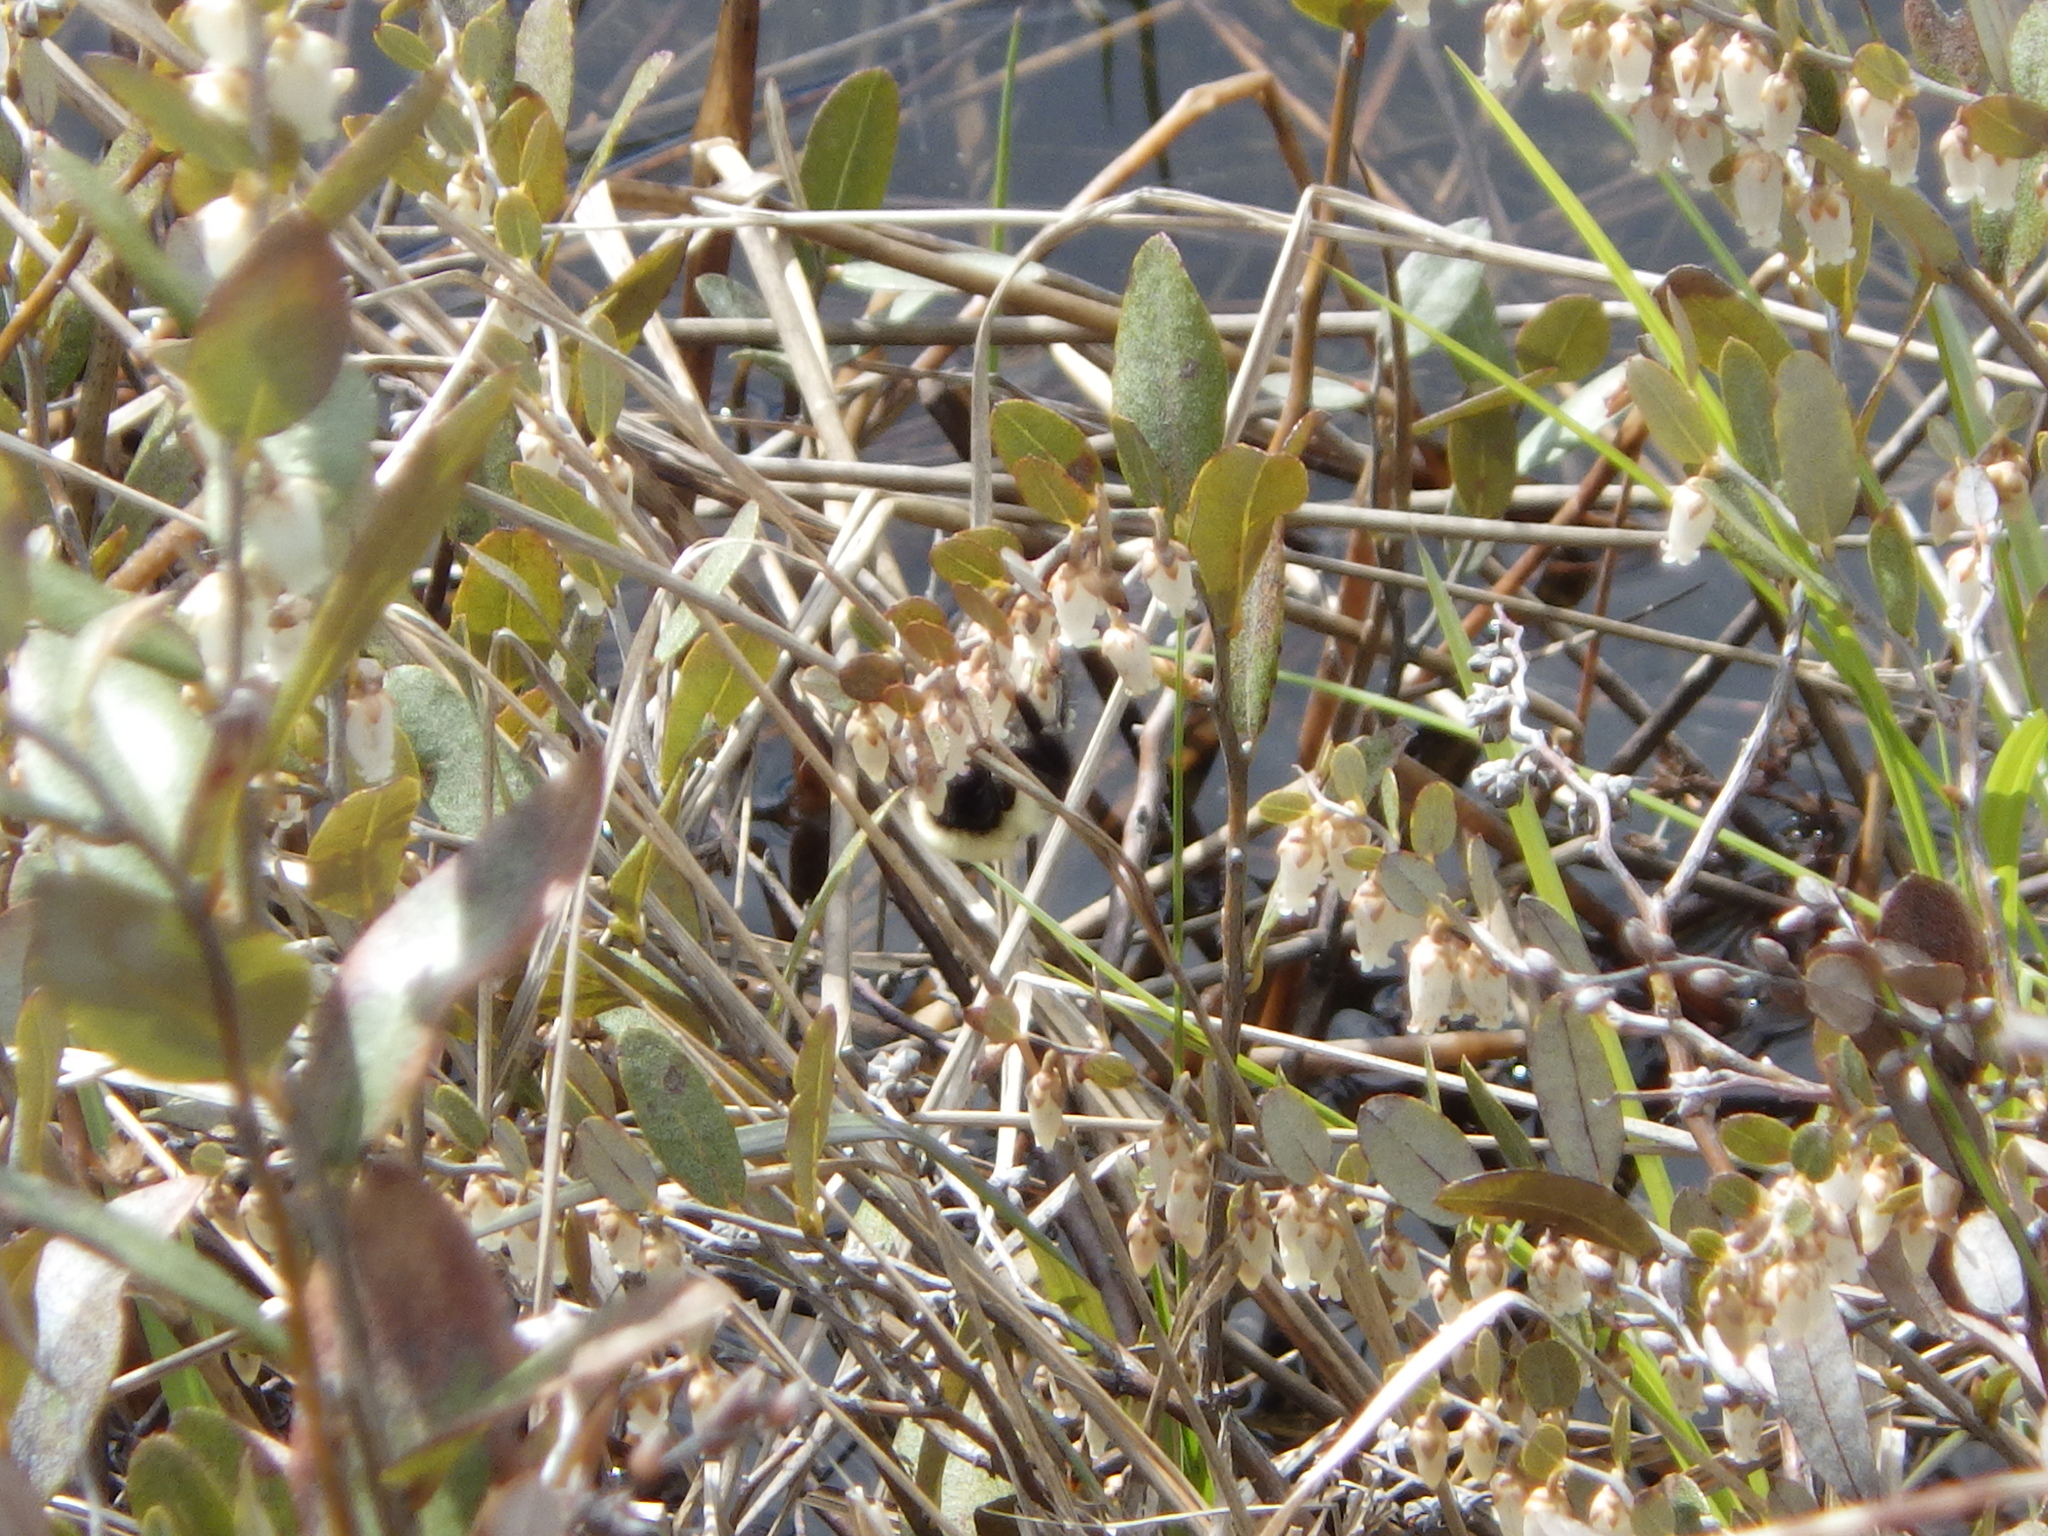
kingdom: Animalia
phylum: Arthropoda
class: Insecta
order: Hymenoptera
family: Apidae
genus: Bombus
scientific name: Bombus bimaculatus
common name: Two-spotted bumble bee
